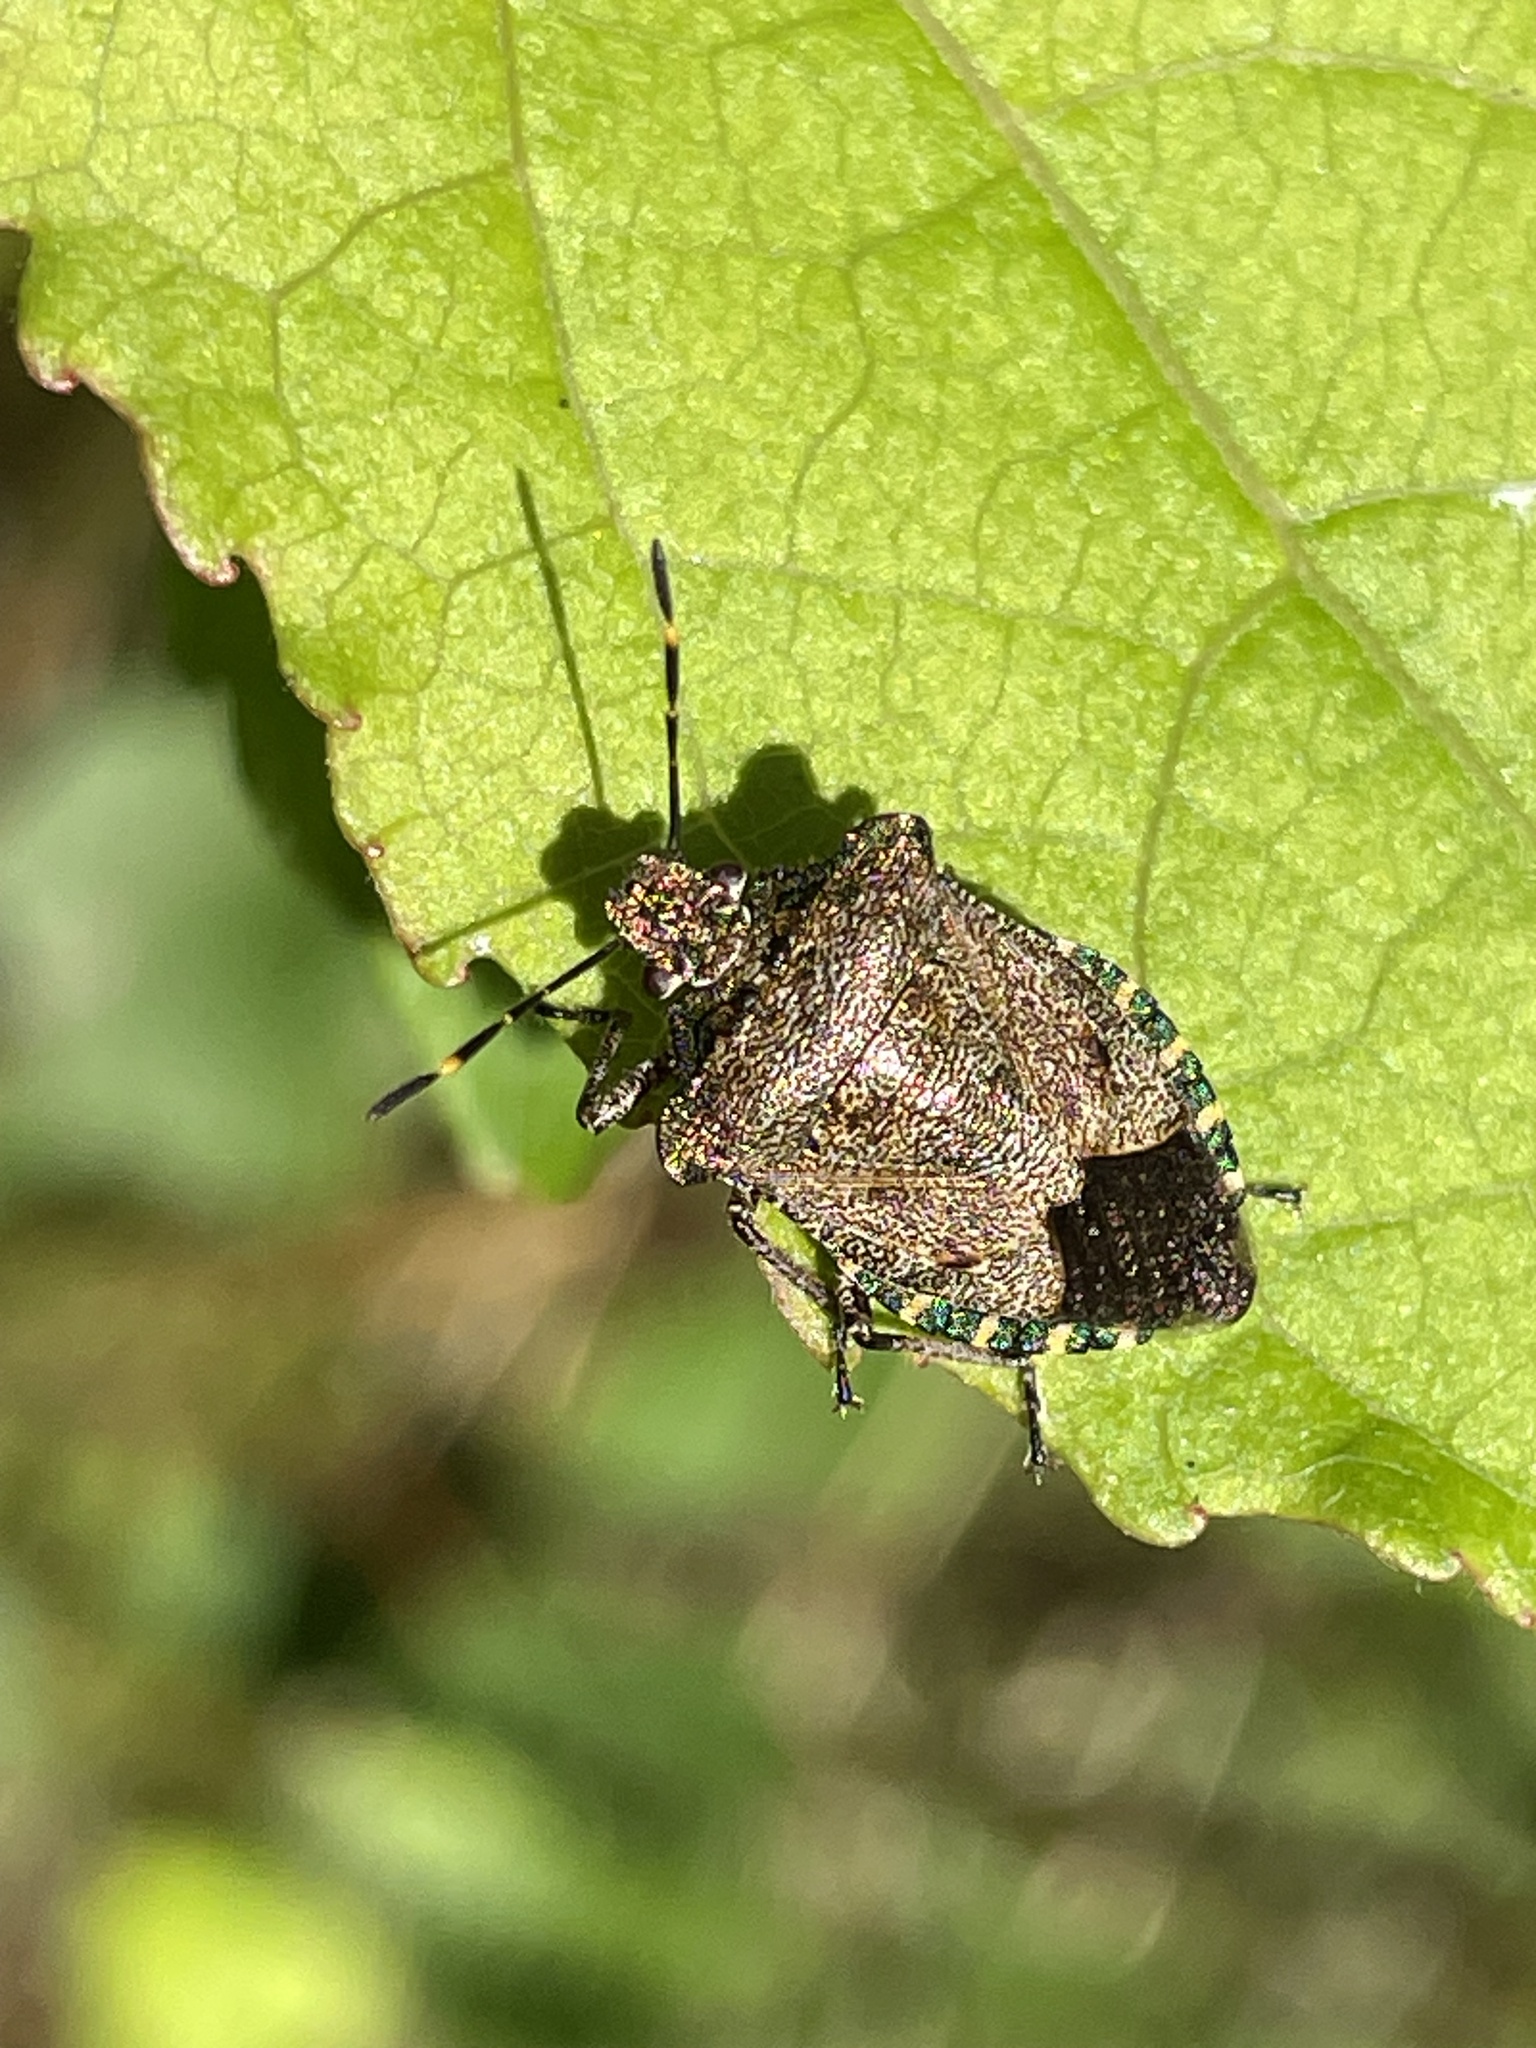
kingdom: Animalia
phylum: Arthropoda
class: Insecta
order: Hemiptera
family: Pentatomidae
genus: Troilus
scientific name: Troilus luridus
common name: Bronze shieldbug
